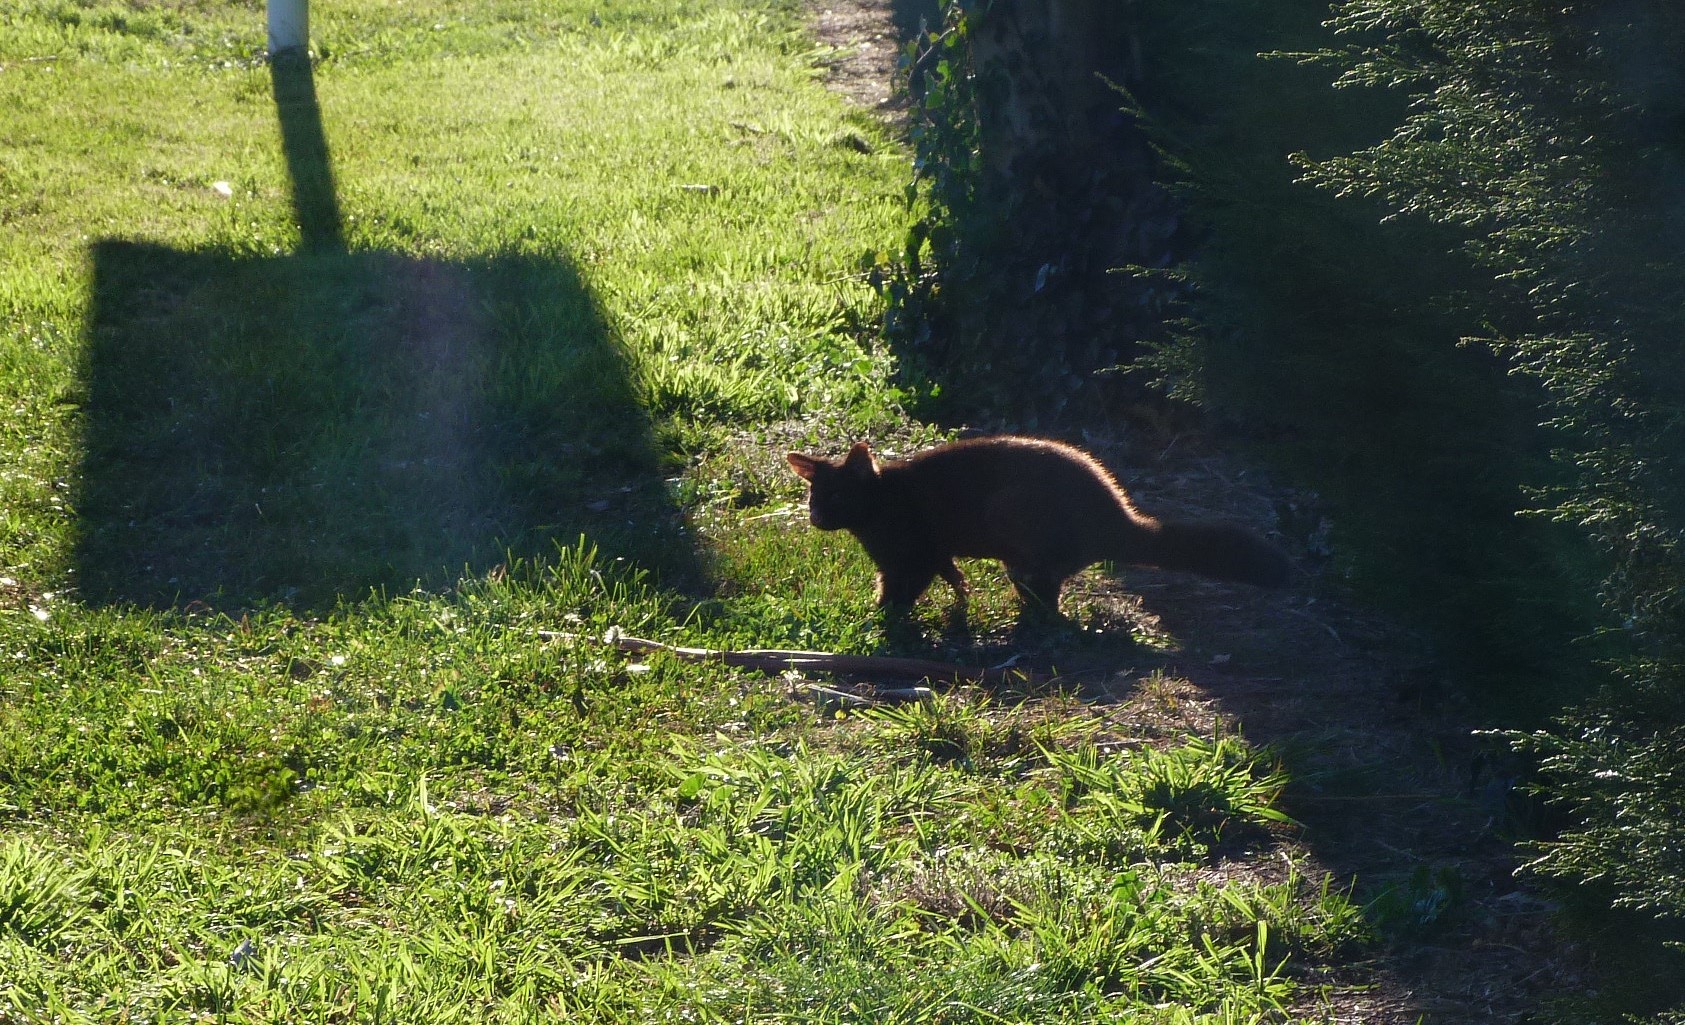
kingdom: Animalia
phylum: Chordata
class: Mammalia
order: Diprotodontia
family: Phalangeridae
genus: Trichosurus
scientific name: Trichosurus vulpecula
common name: Common brushtail
